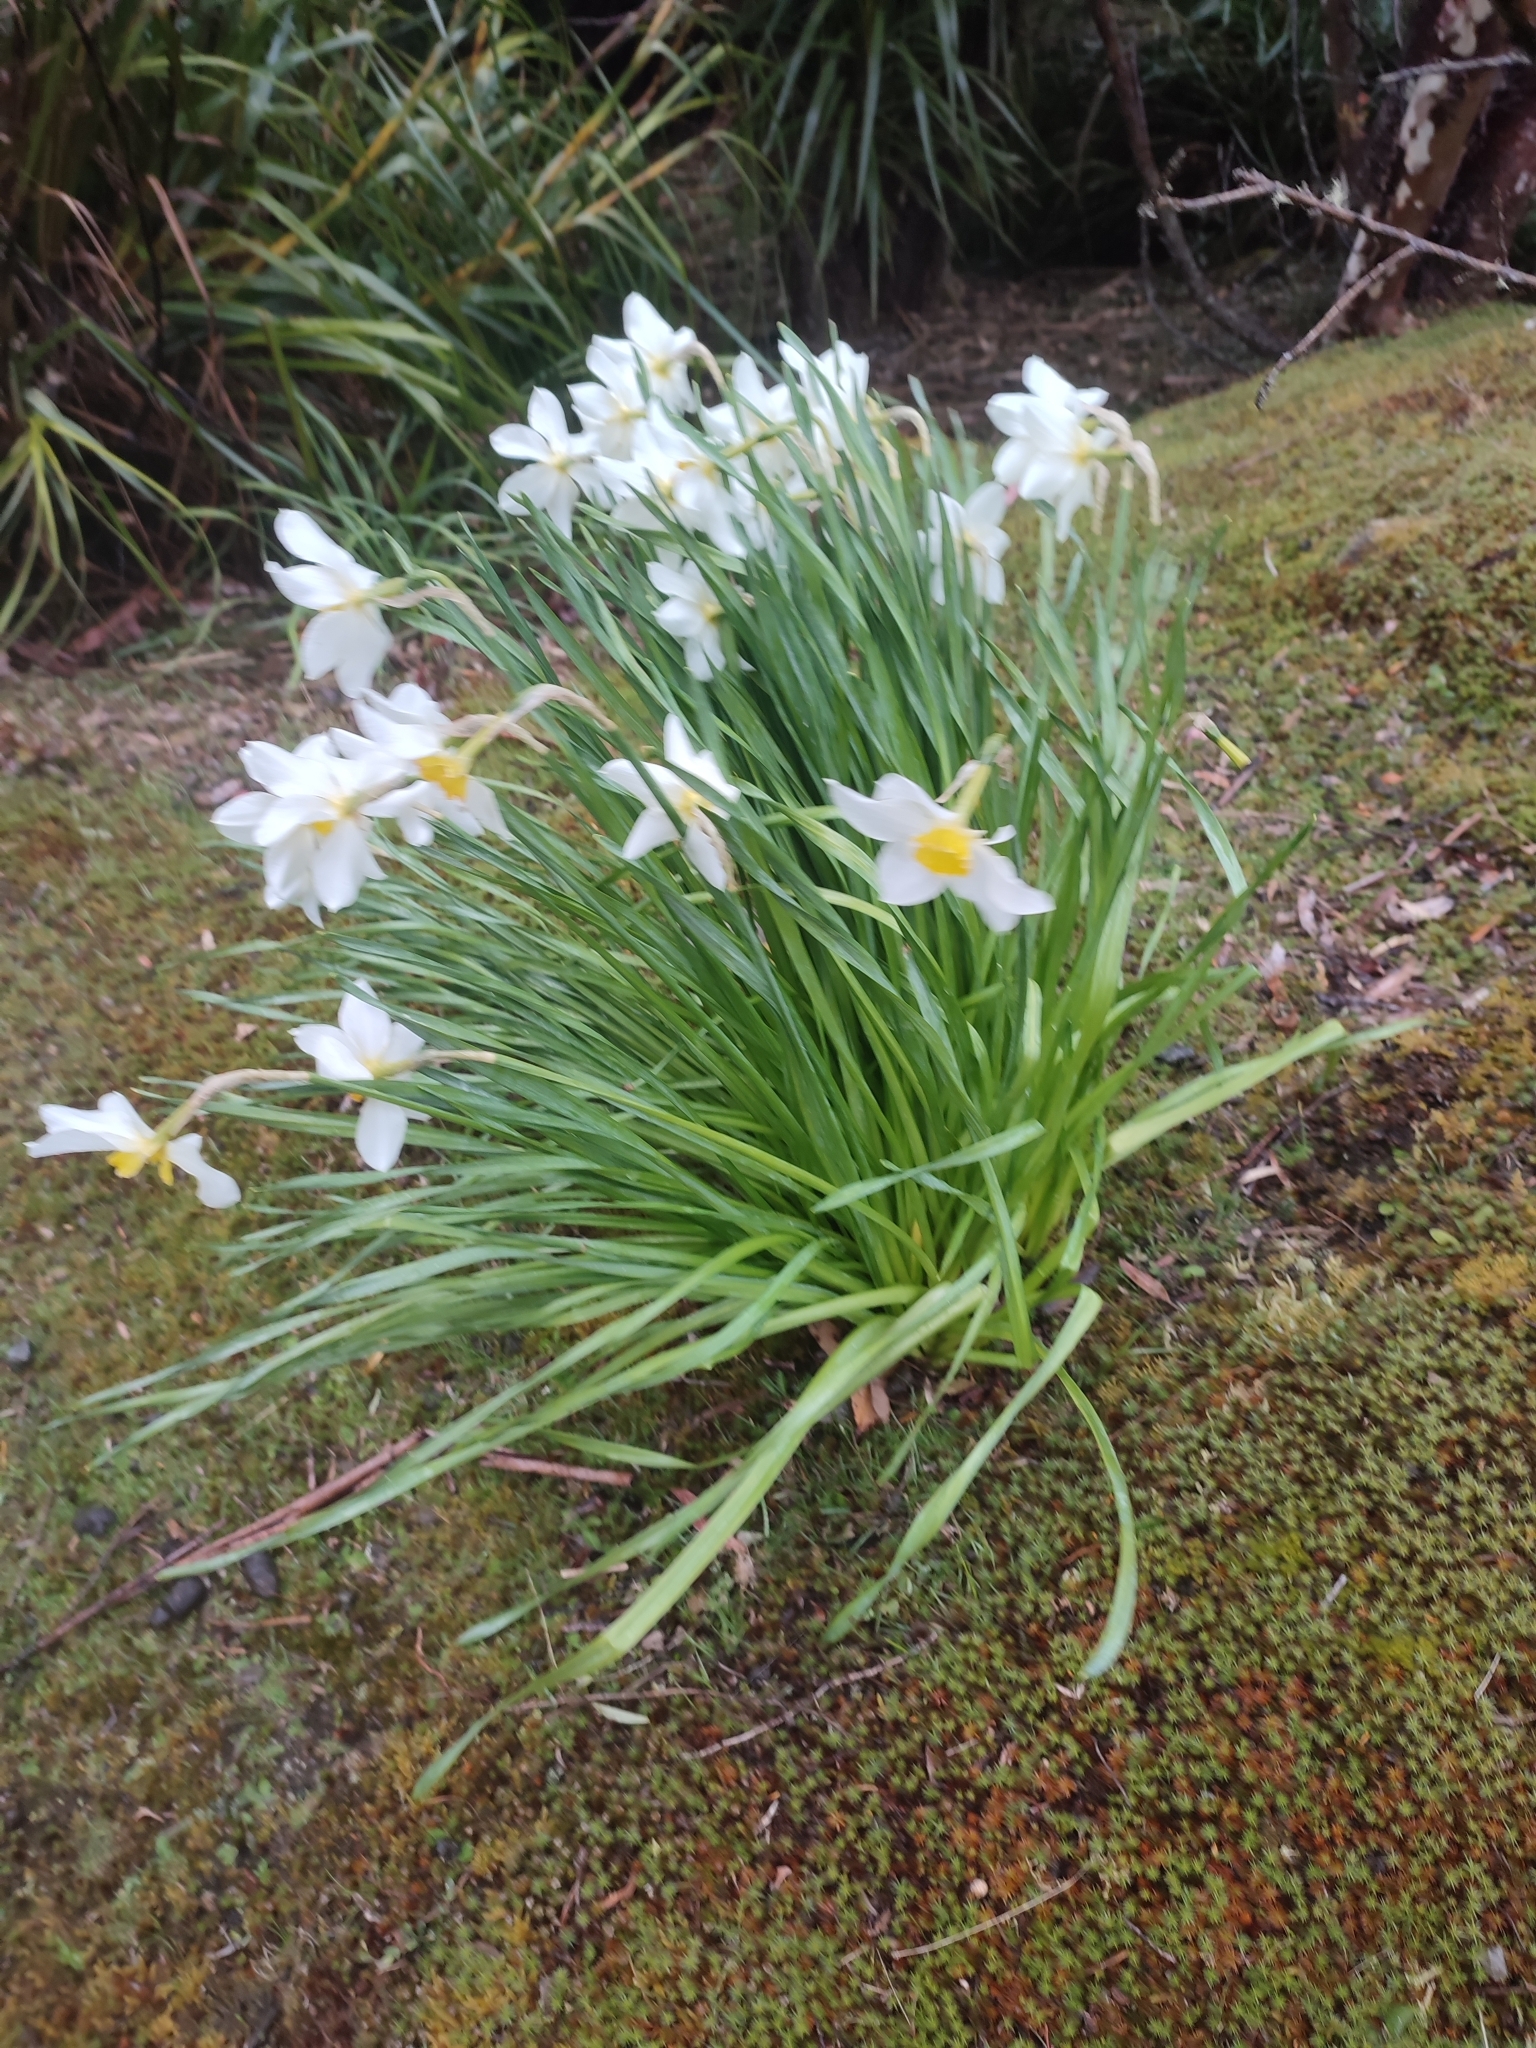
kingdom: Plantae
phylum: Tracheophyta
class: Liliopsida
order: Asparagales
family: Amaryllidaceae
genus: Narcissus
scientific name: Narcissus tazetta
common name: Bunch-flowered daffodil
